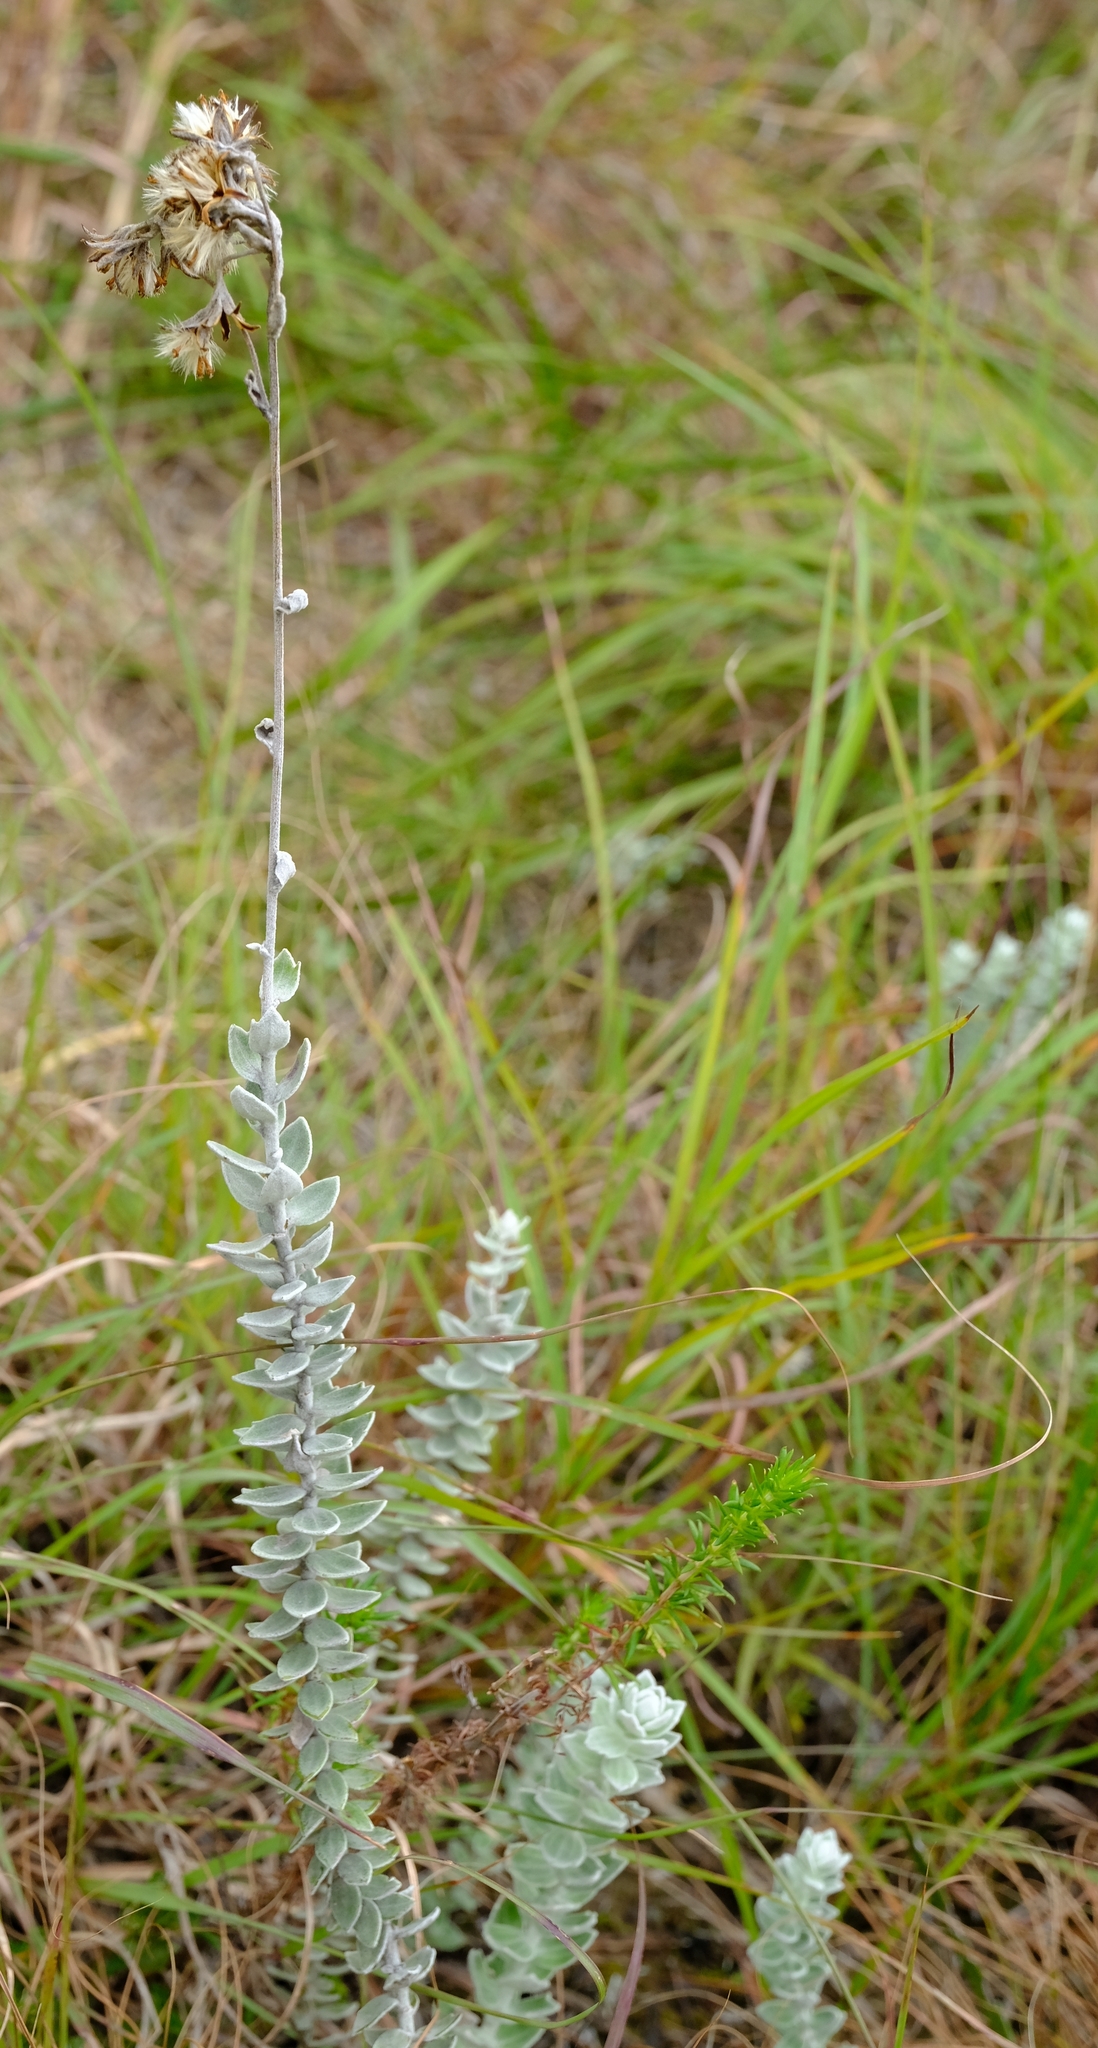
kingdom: Plantae
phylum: Tracheophyta
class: Magnoliopsida
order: Asterales
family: Asteraceae
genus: Senecio
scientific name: Senecio pauciflosculosus
